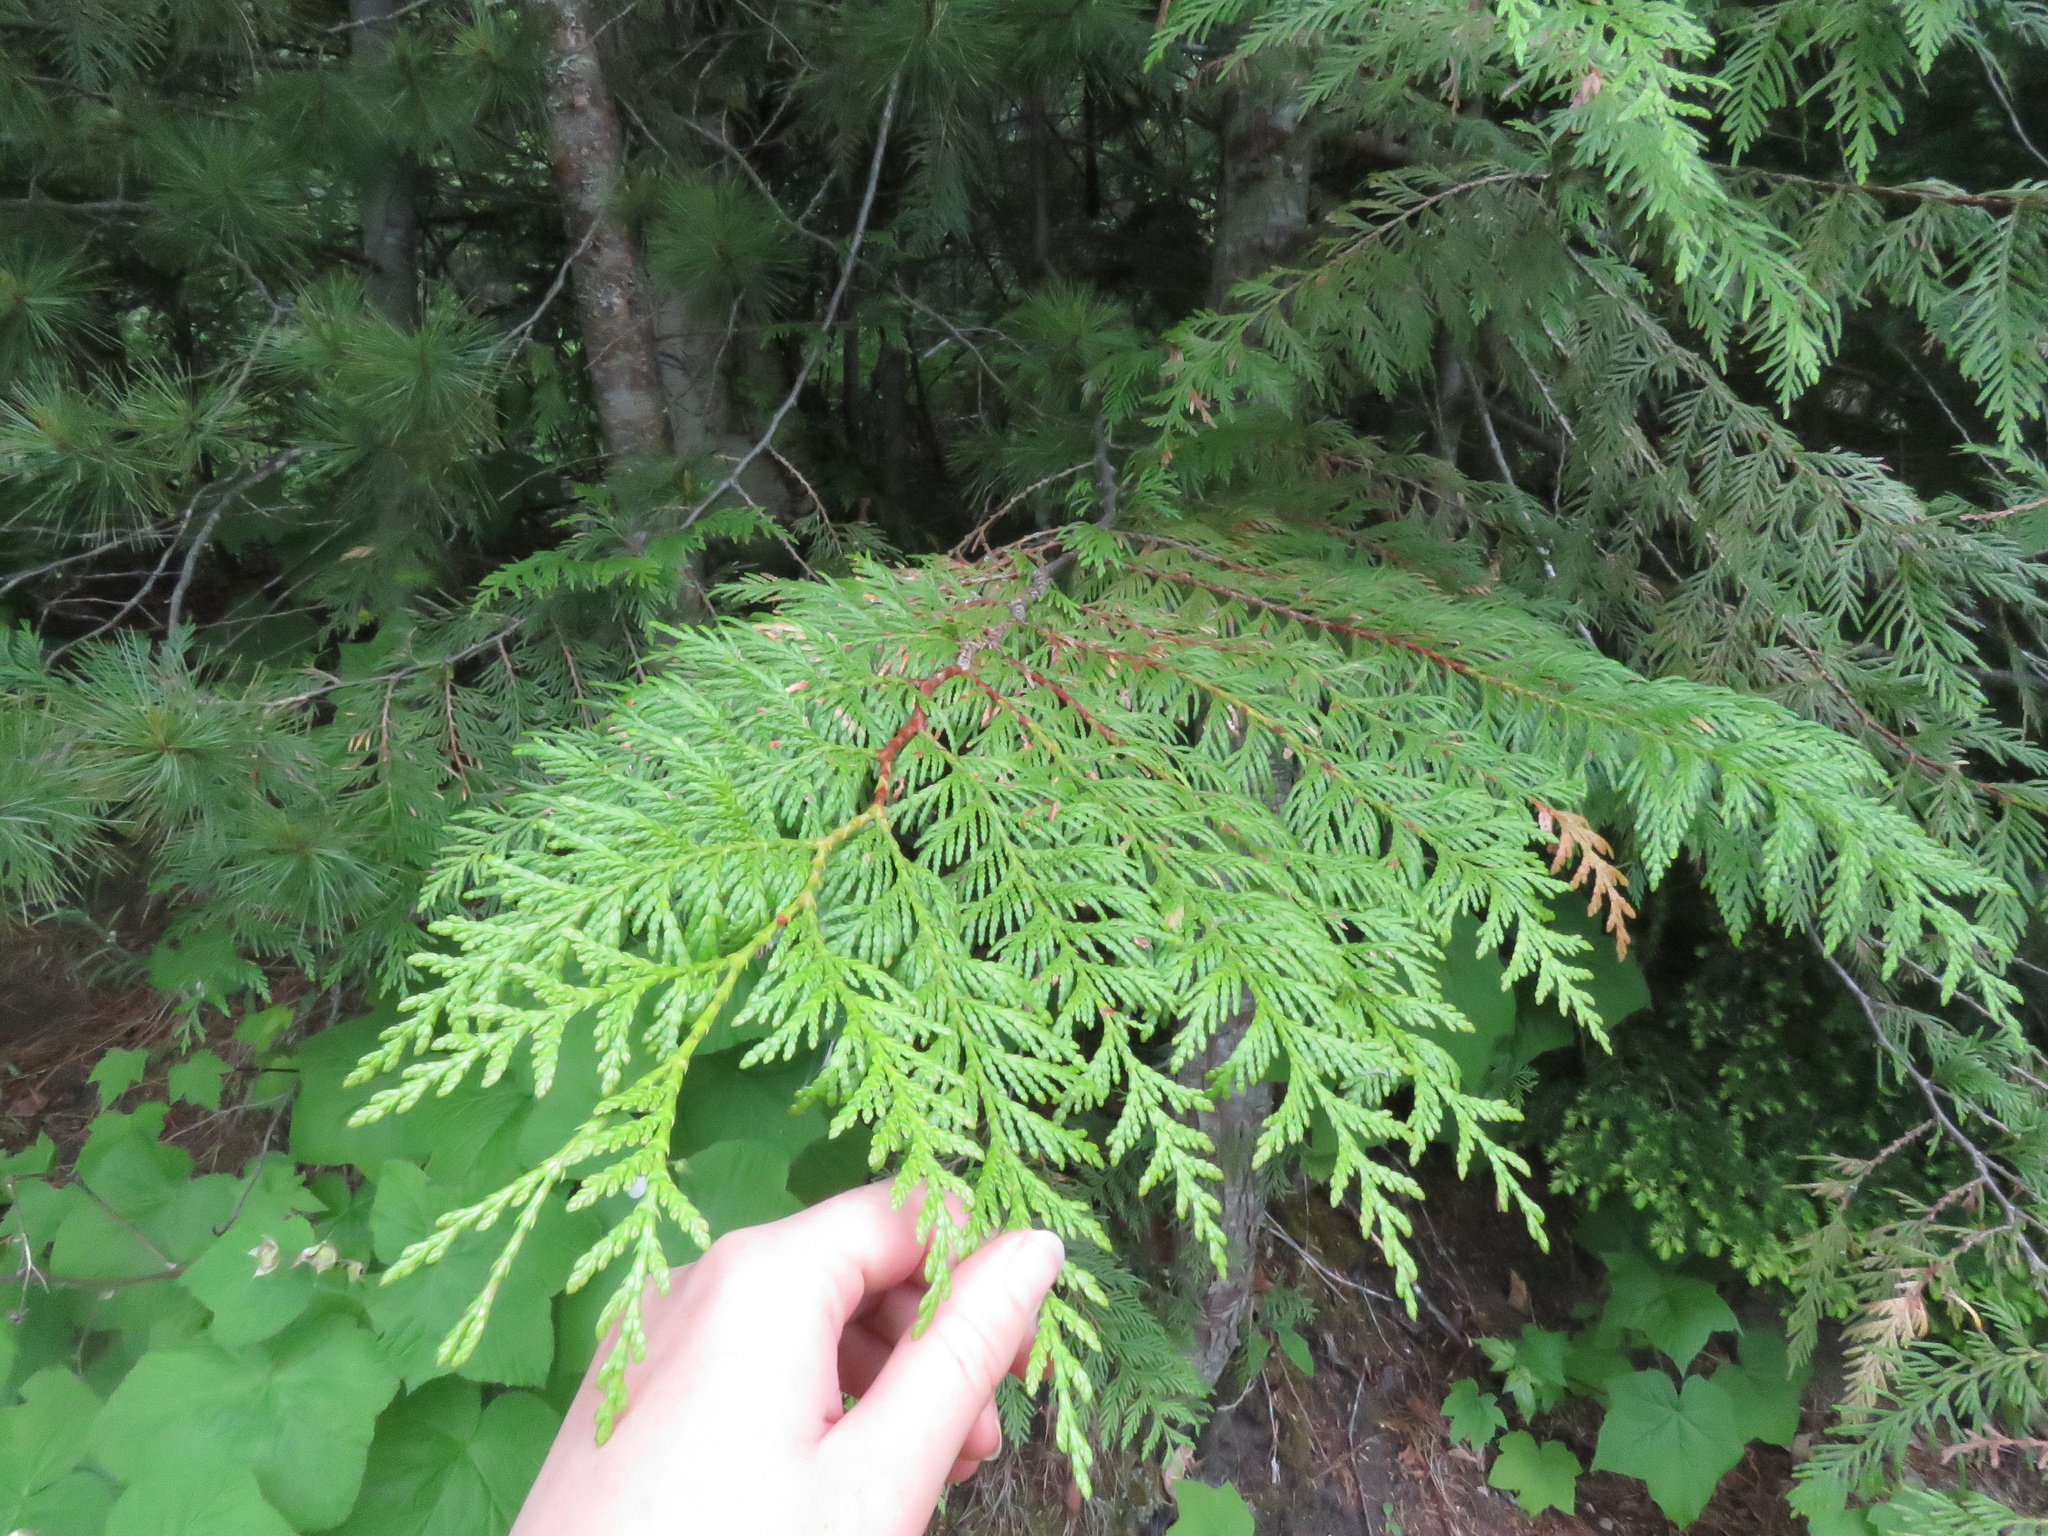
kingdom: Plantae
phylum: Tracheophyta
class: Pinopsida
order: Pinales
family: Cupressaceae
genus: Thuja
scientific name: Thuja plicata
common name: Western red-cedar
